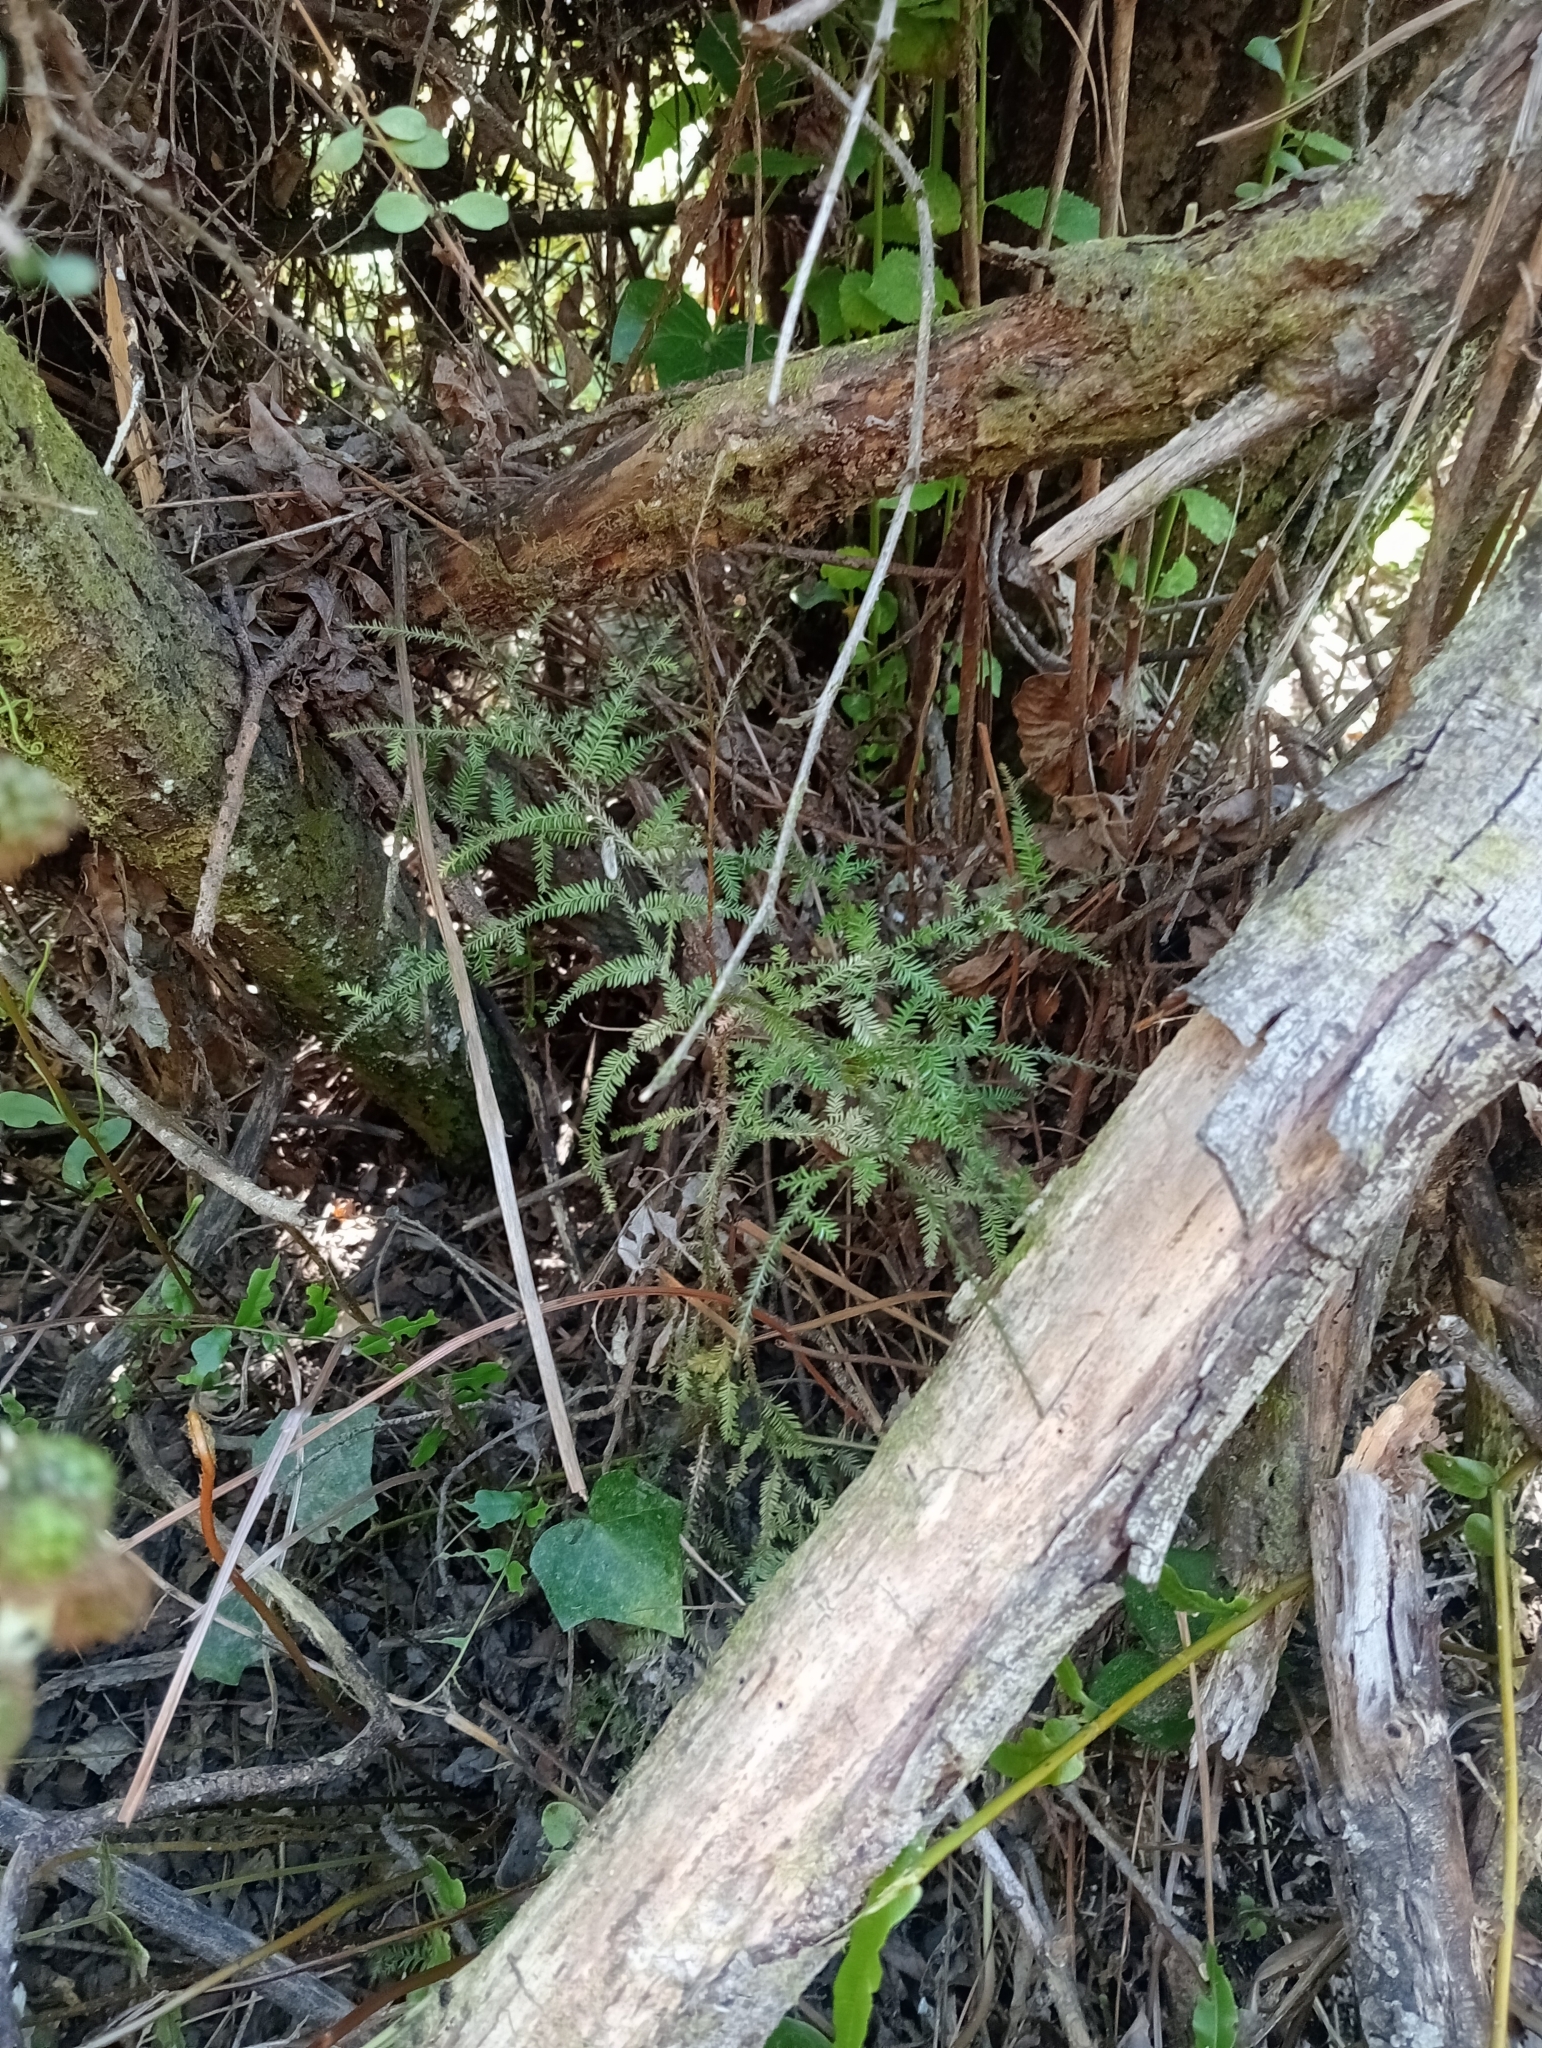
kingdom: Plantae
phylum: Tracheophyta
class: Pinopsida
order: Pinales
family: Podocarpaceae
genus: Dacrycarpus
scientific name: Dacrycarpus dacrydioides
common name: White pine
